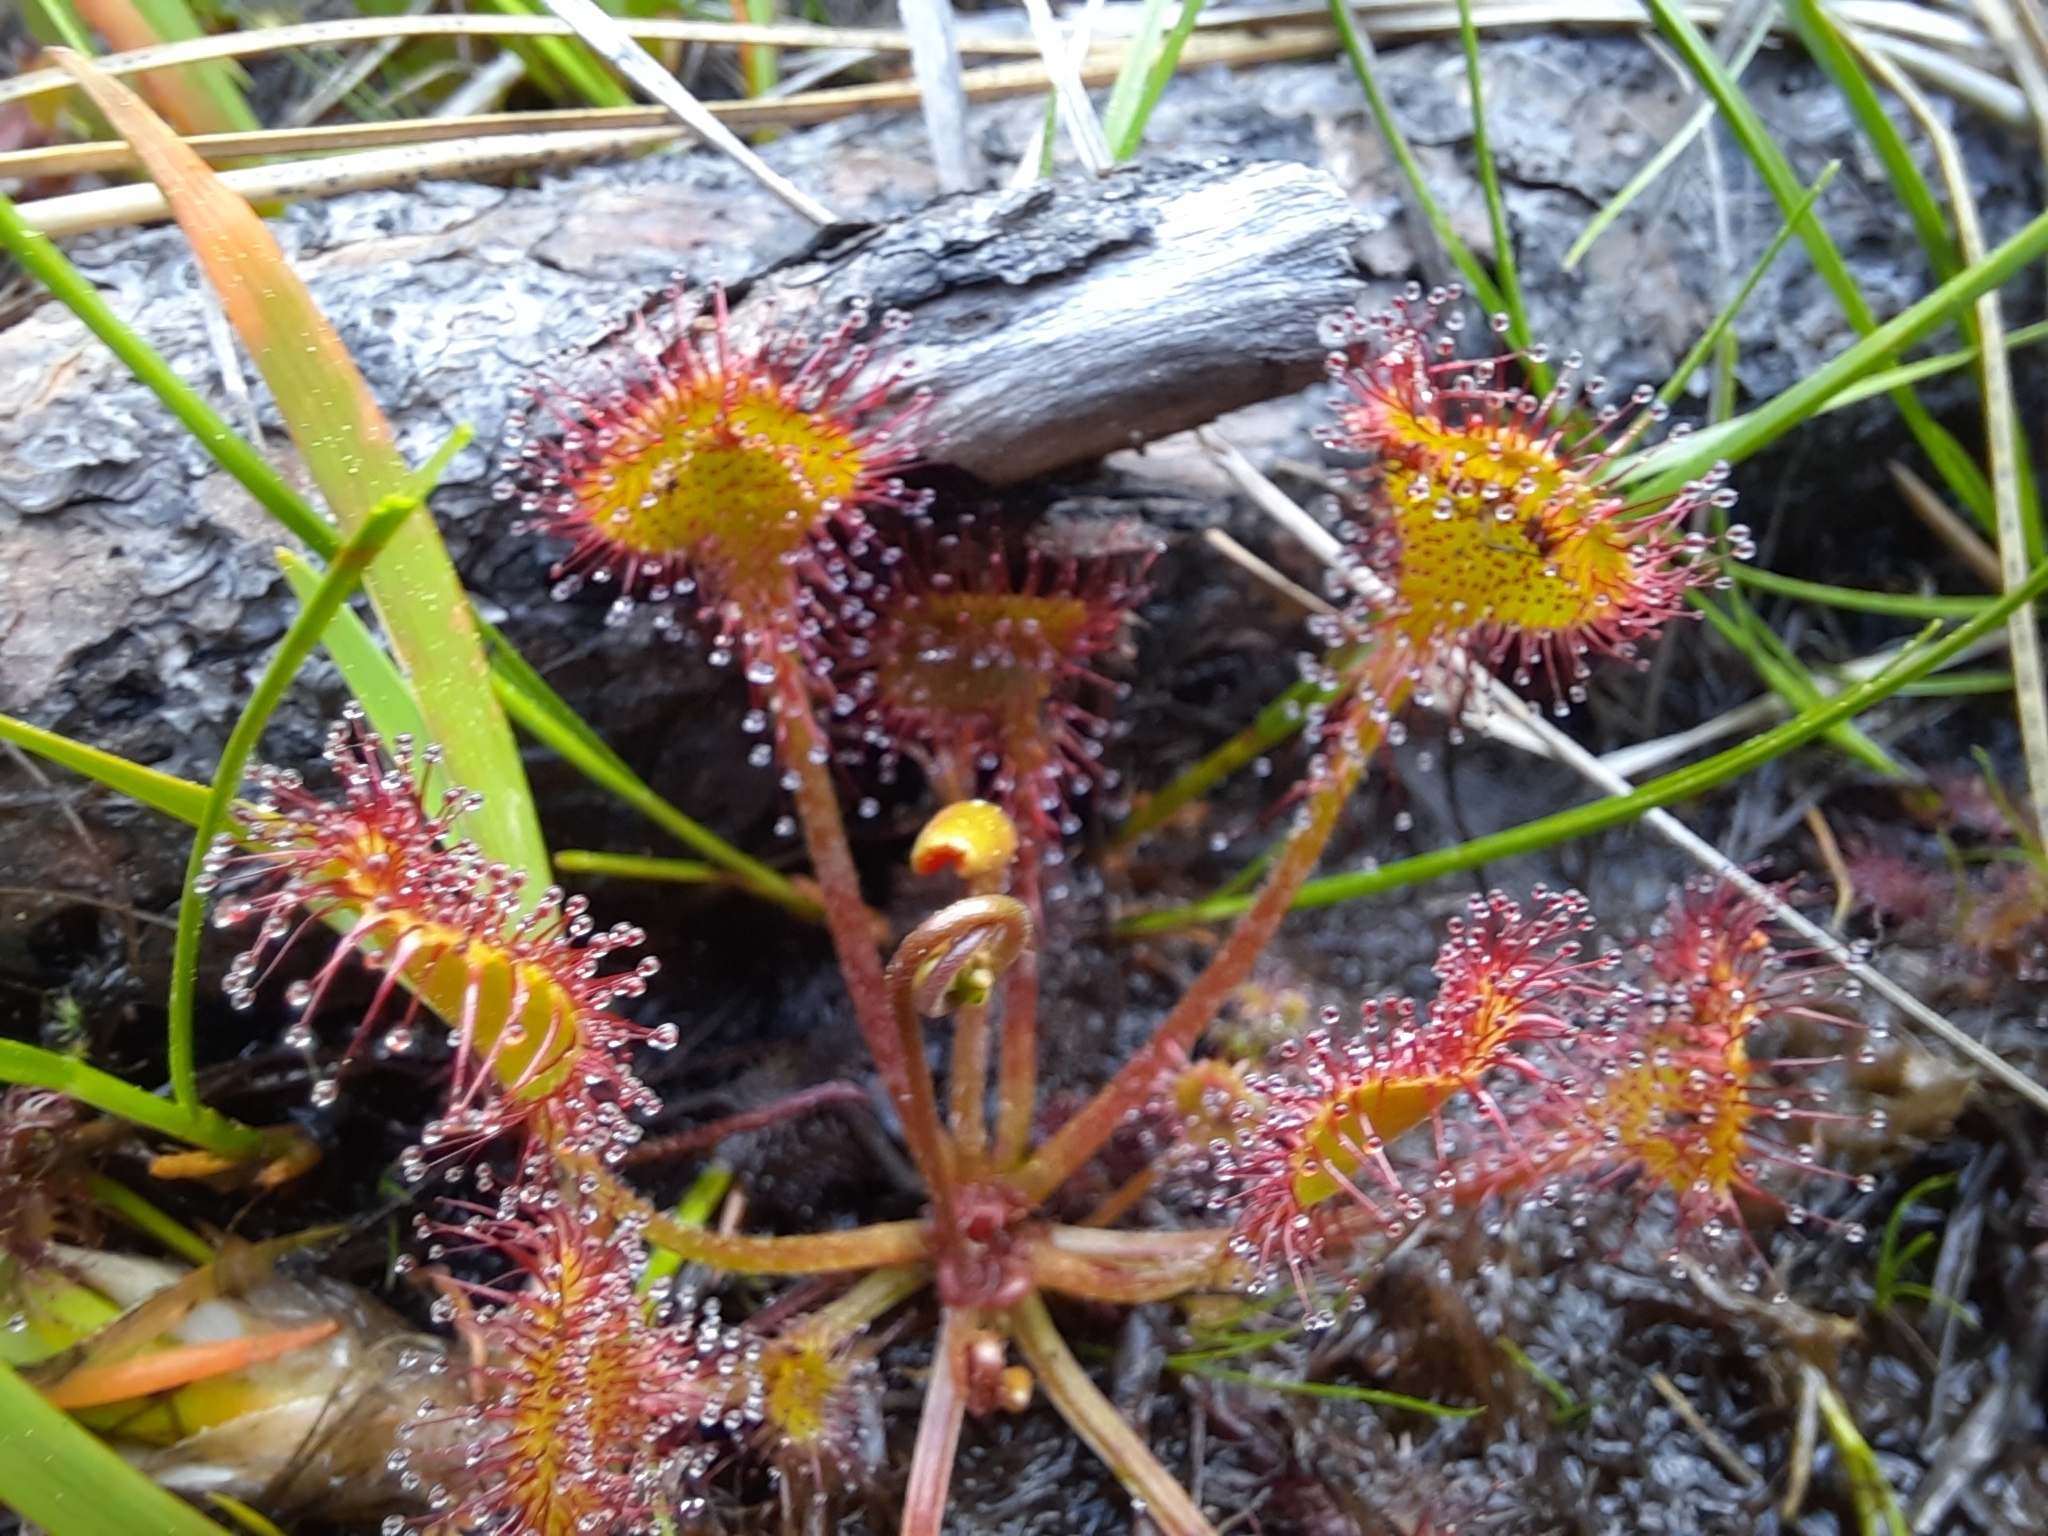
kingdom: Plantae
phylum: Tracheophyta
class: Magnoliopsida
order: Caryophyllales
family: Droseraceae
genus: Drosera
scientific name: Drosera rotundifolia
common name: Round-leaved sundew
